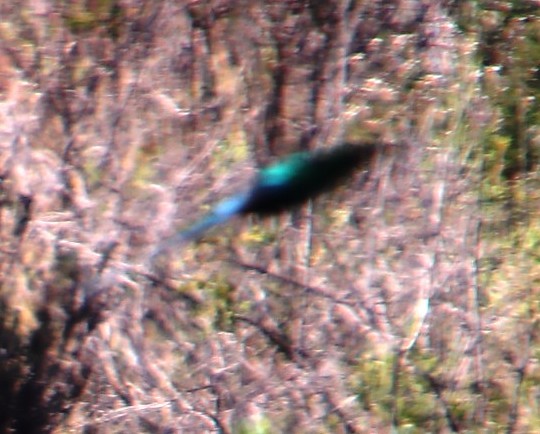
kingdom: Animalia
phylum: Chordata
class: Aves
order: Passeriformes
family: Nectariniidae
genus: Nectarinia
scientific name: Nectarinia famosa
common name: Malachite sunbird
